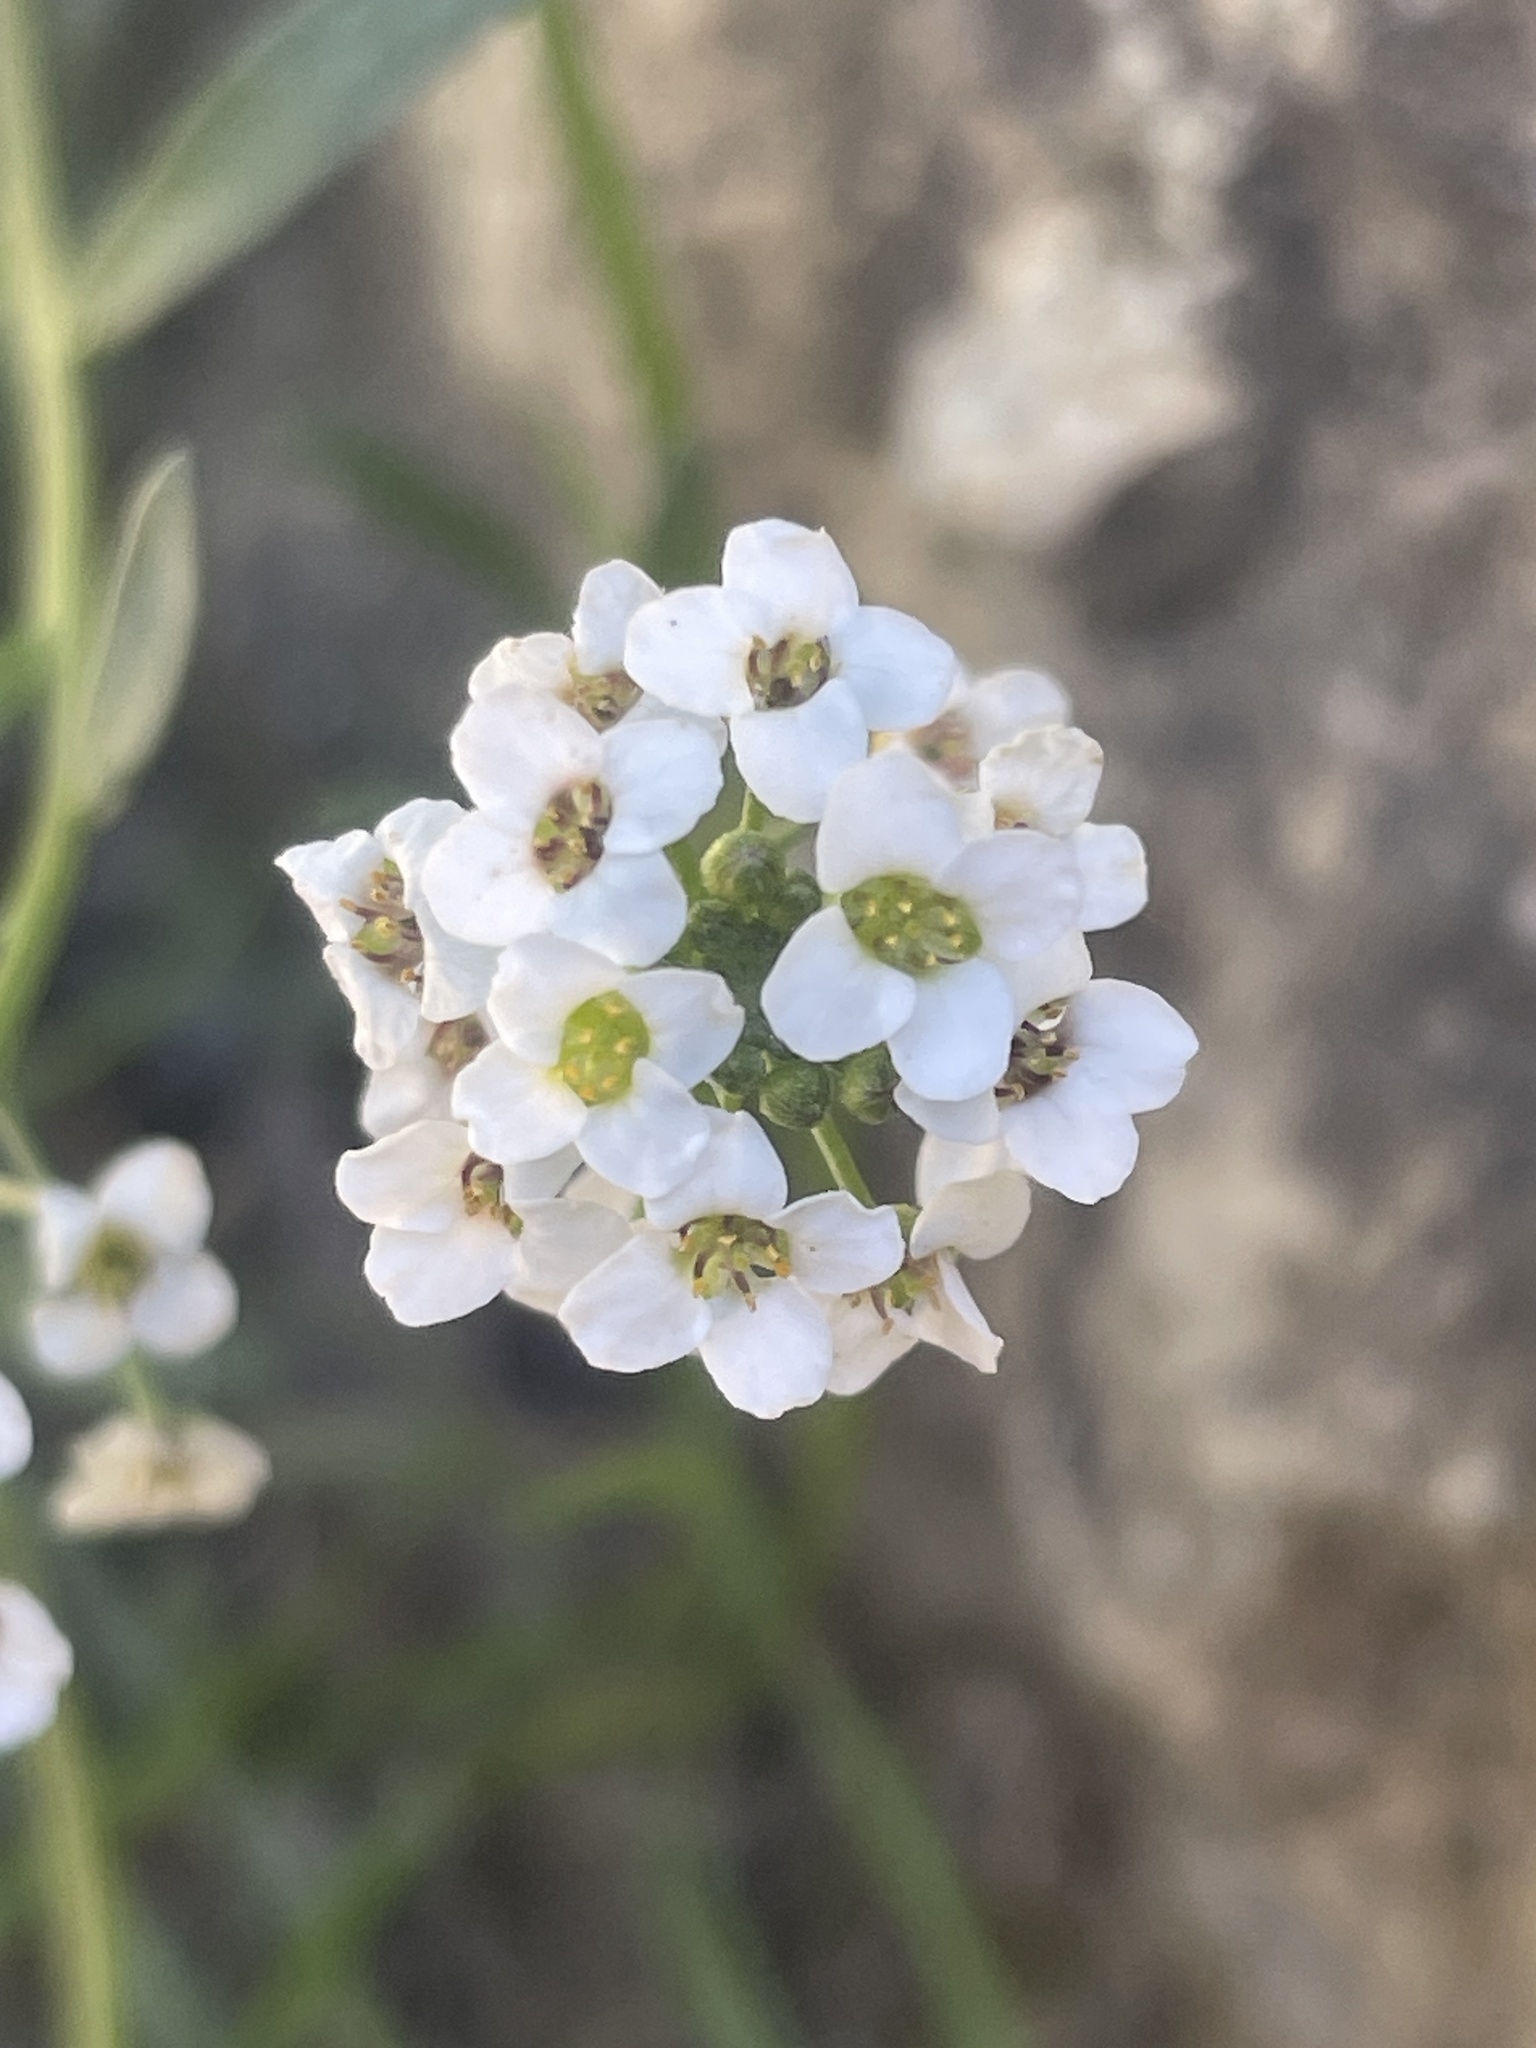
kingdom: Plantae
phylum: Tracheophyta
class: Magnoliopsida
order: Brassicales
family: Brassicaceae
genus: Lobularia
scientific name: Lobularia maritima
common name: Sweet alison
